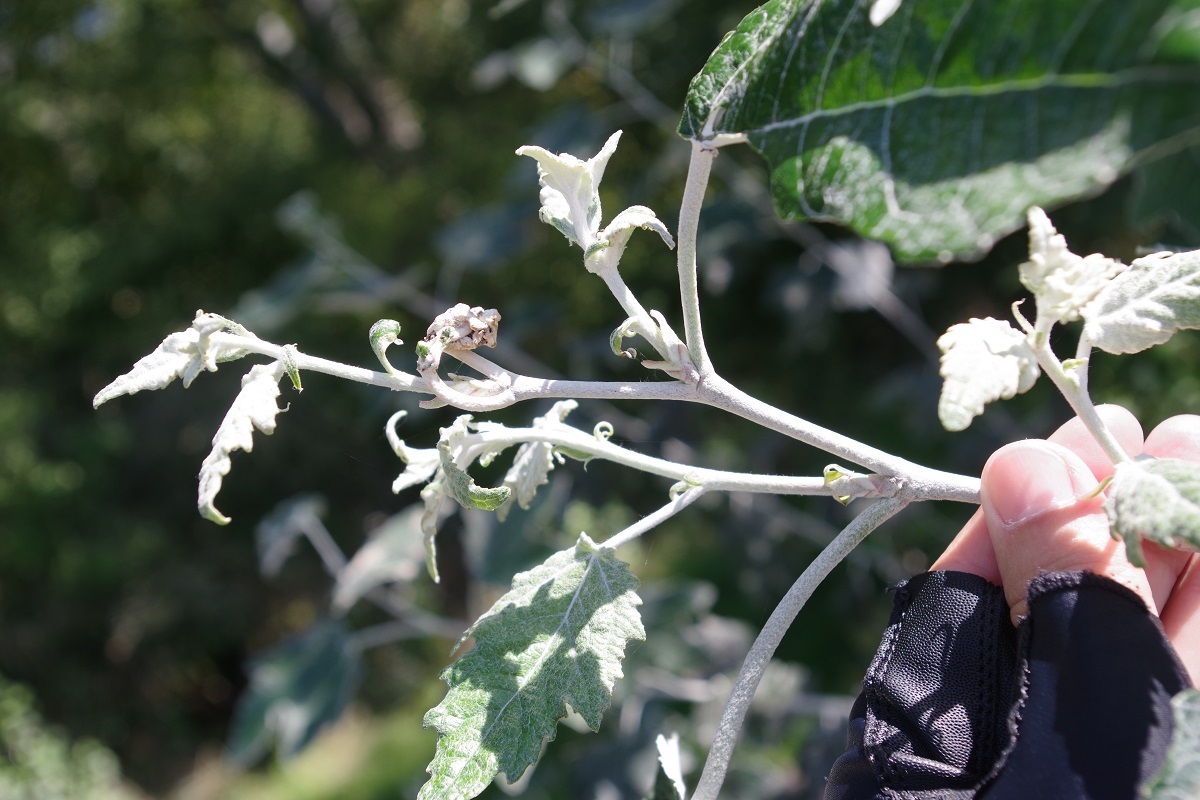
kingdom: Plantae
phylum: Tracheophyta
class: Magnoliopsida
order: Malpighiales
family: Salicaceae
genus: Populus
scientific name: Populus alba
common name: White poplar
